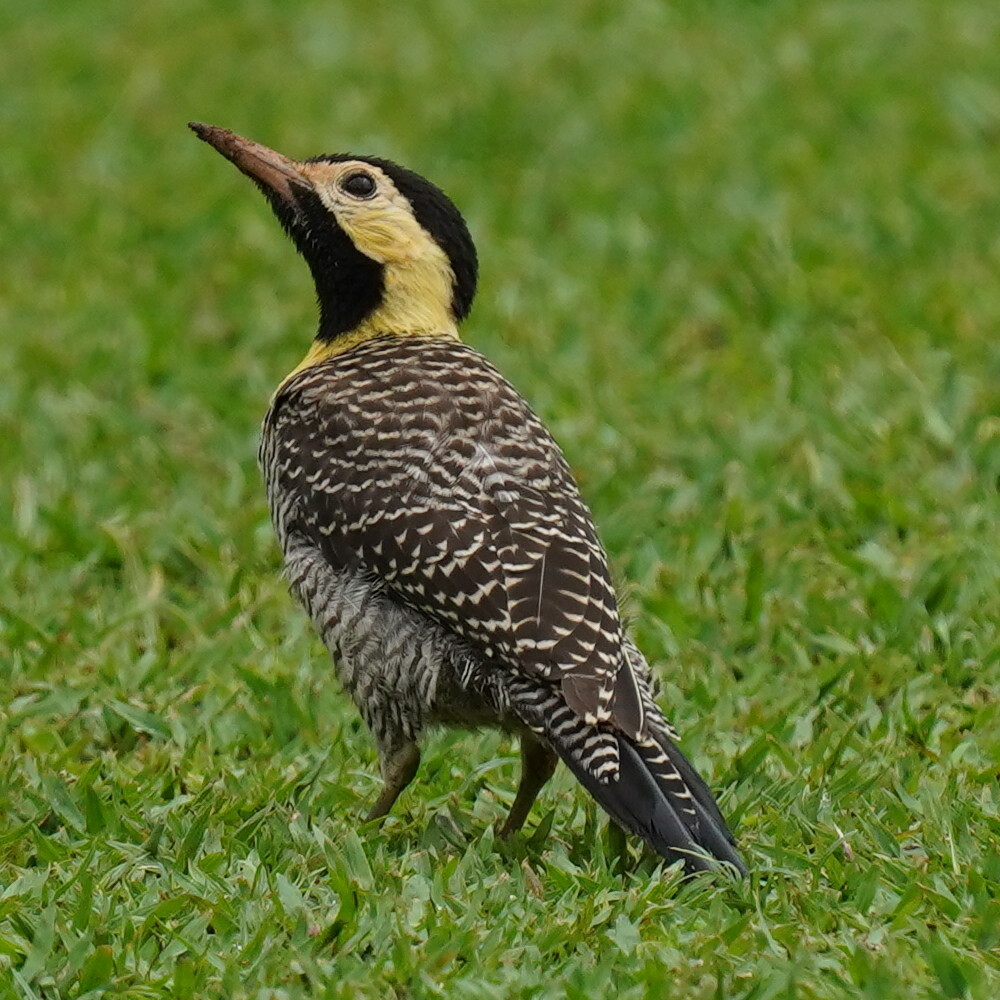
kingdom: Animalia
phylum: Chordata
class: Aves
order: Piciformes
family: Picidae
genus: Colaptes
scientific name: Colaptes campestris
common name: Campo flicker
